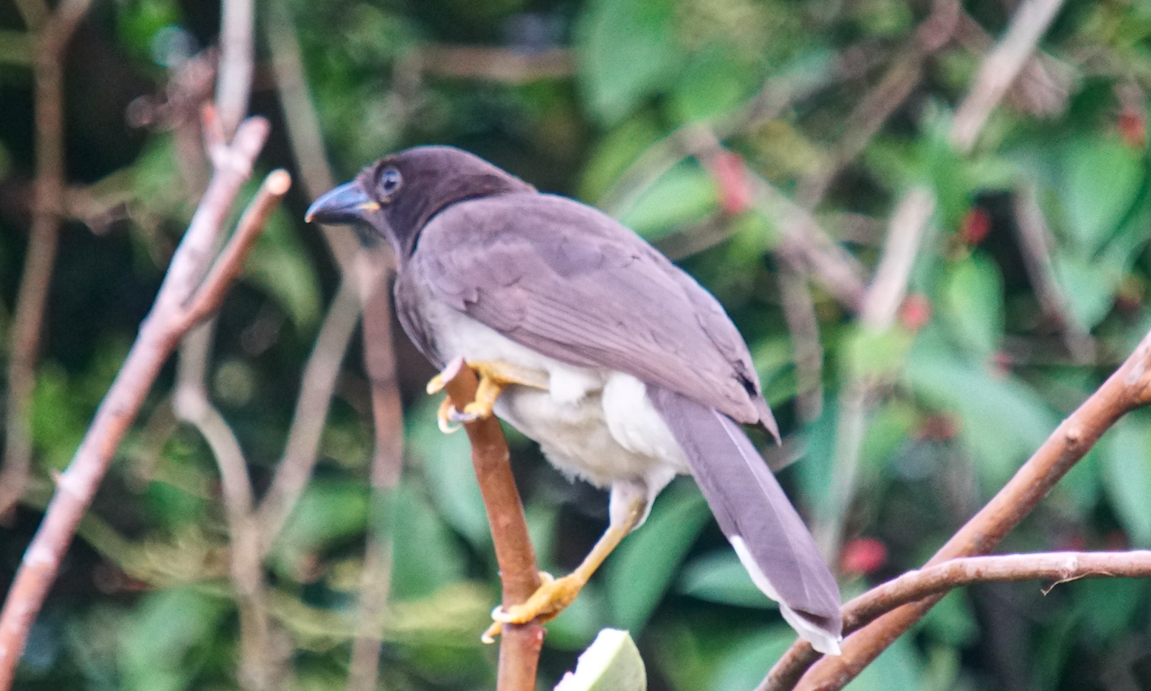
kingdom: Animalia
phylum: Chordata
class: Aves
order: Passeriformes
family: Corvidae
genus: Psilorhinus
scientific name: Psilorhinus morio
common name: Brown jay
